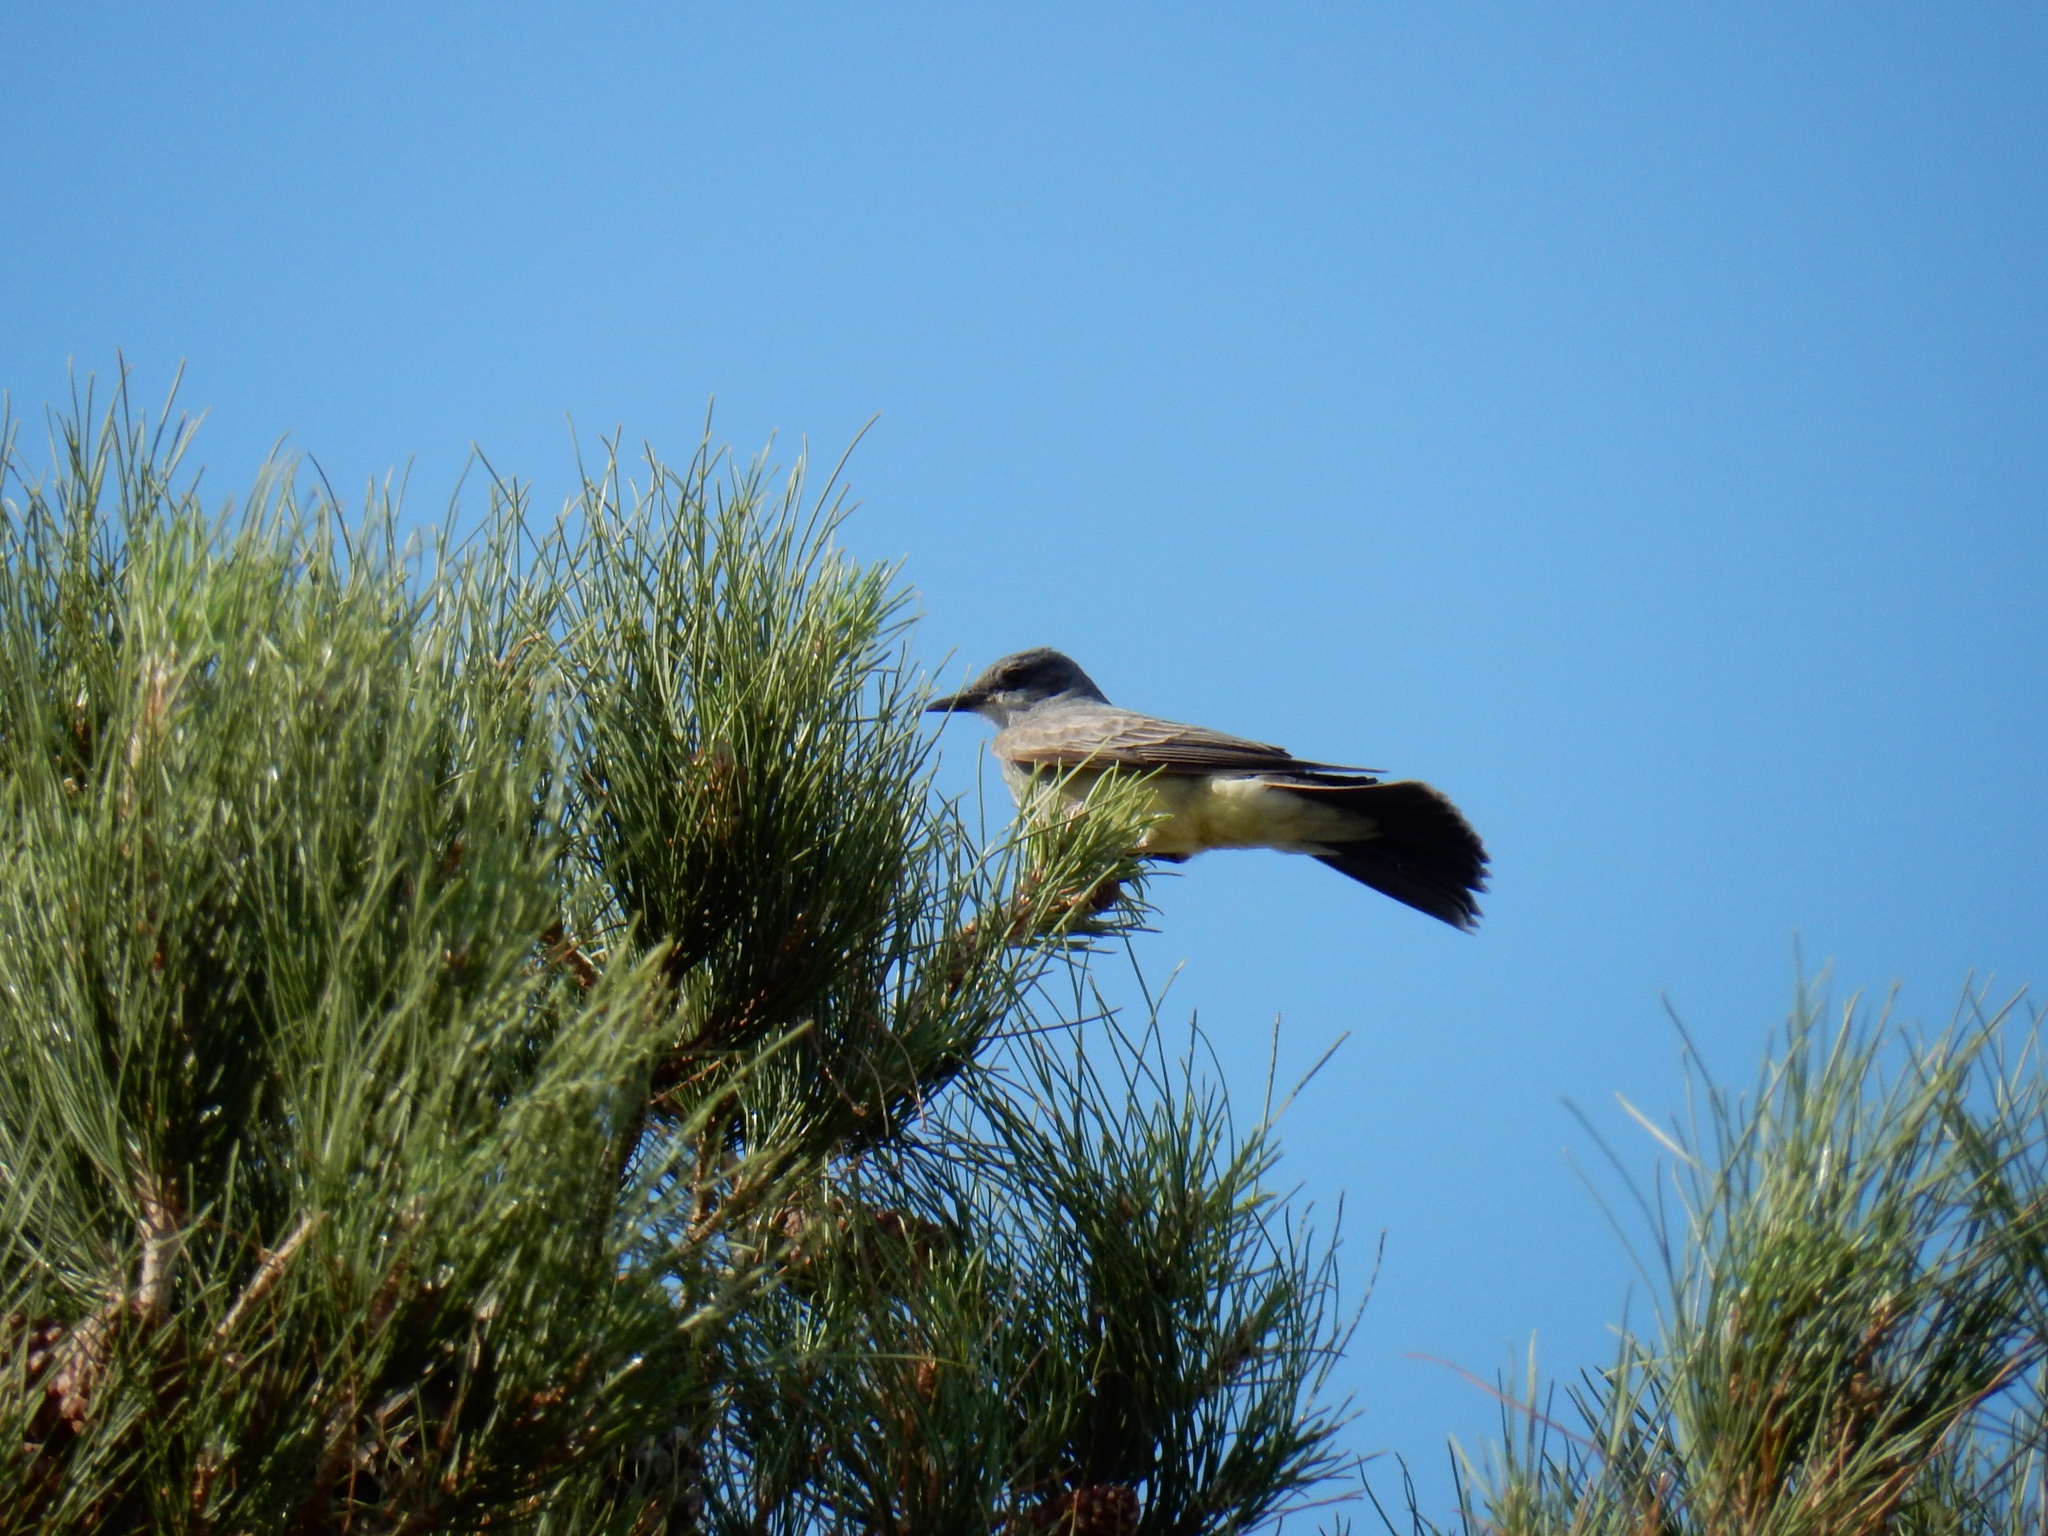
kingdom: Animalia
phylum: Chordata
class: Aves
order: Passeriformes
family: Tyrannidae
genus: Tyrannus
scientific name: Tyrannus vociferans
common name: Cassin's kingbird
